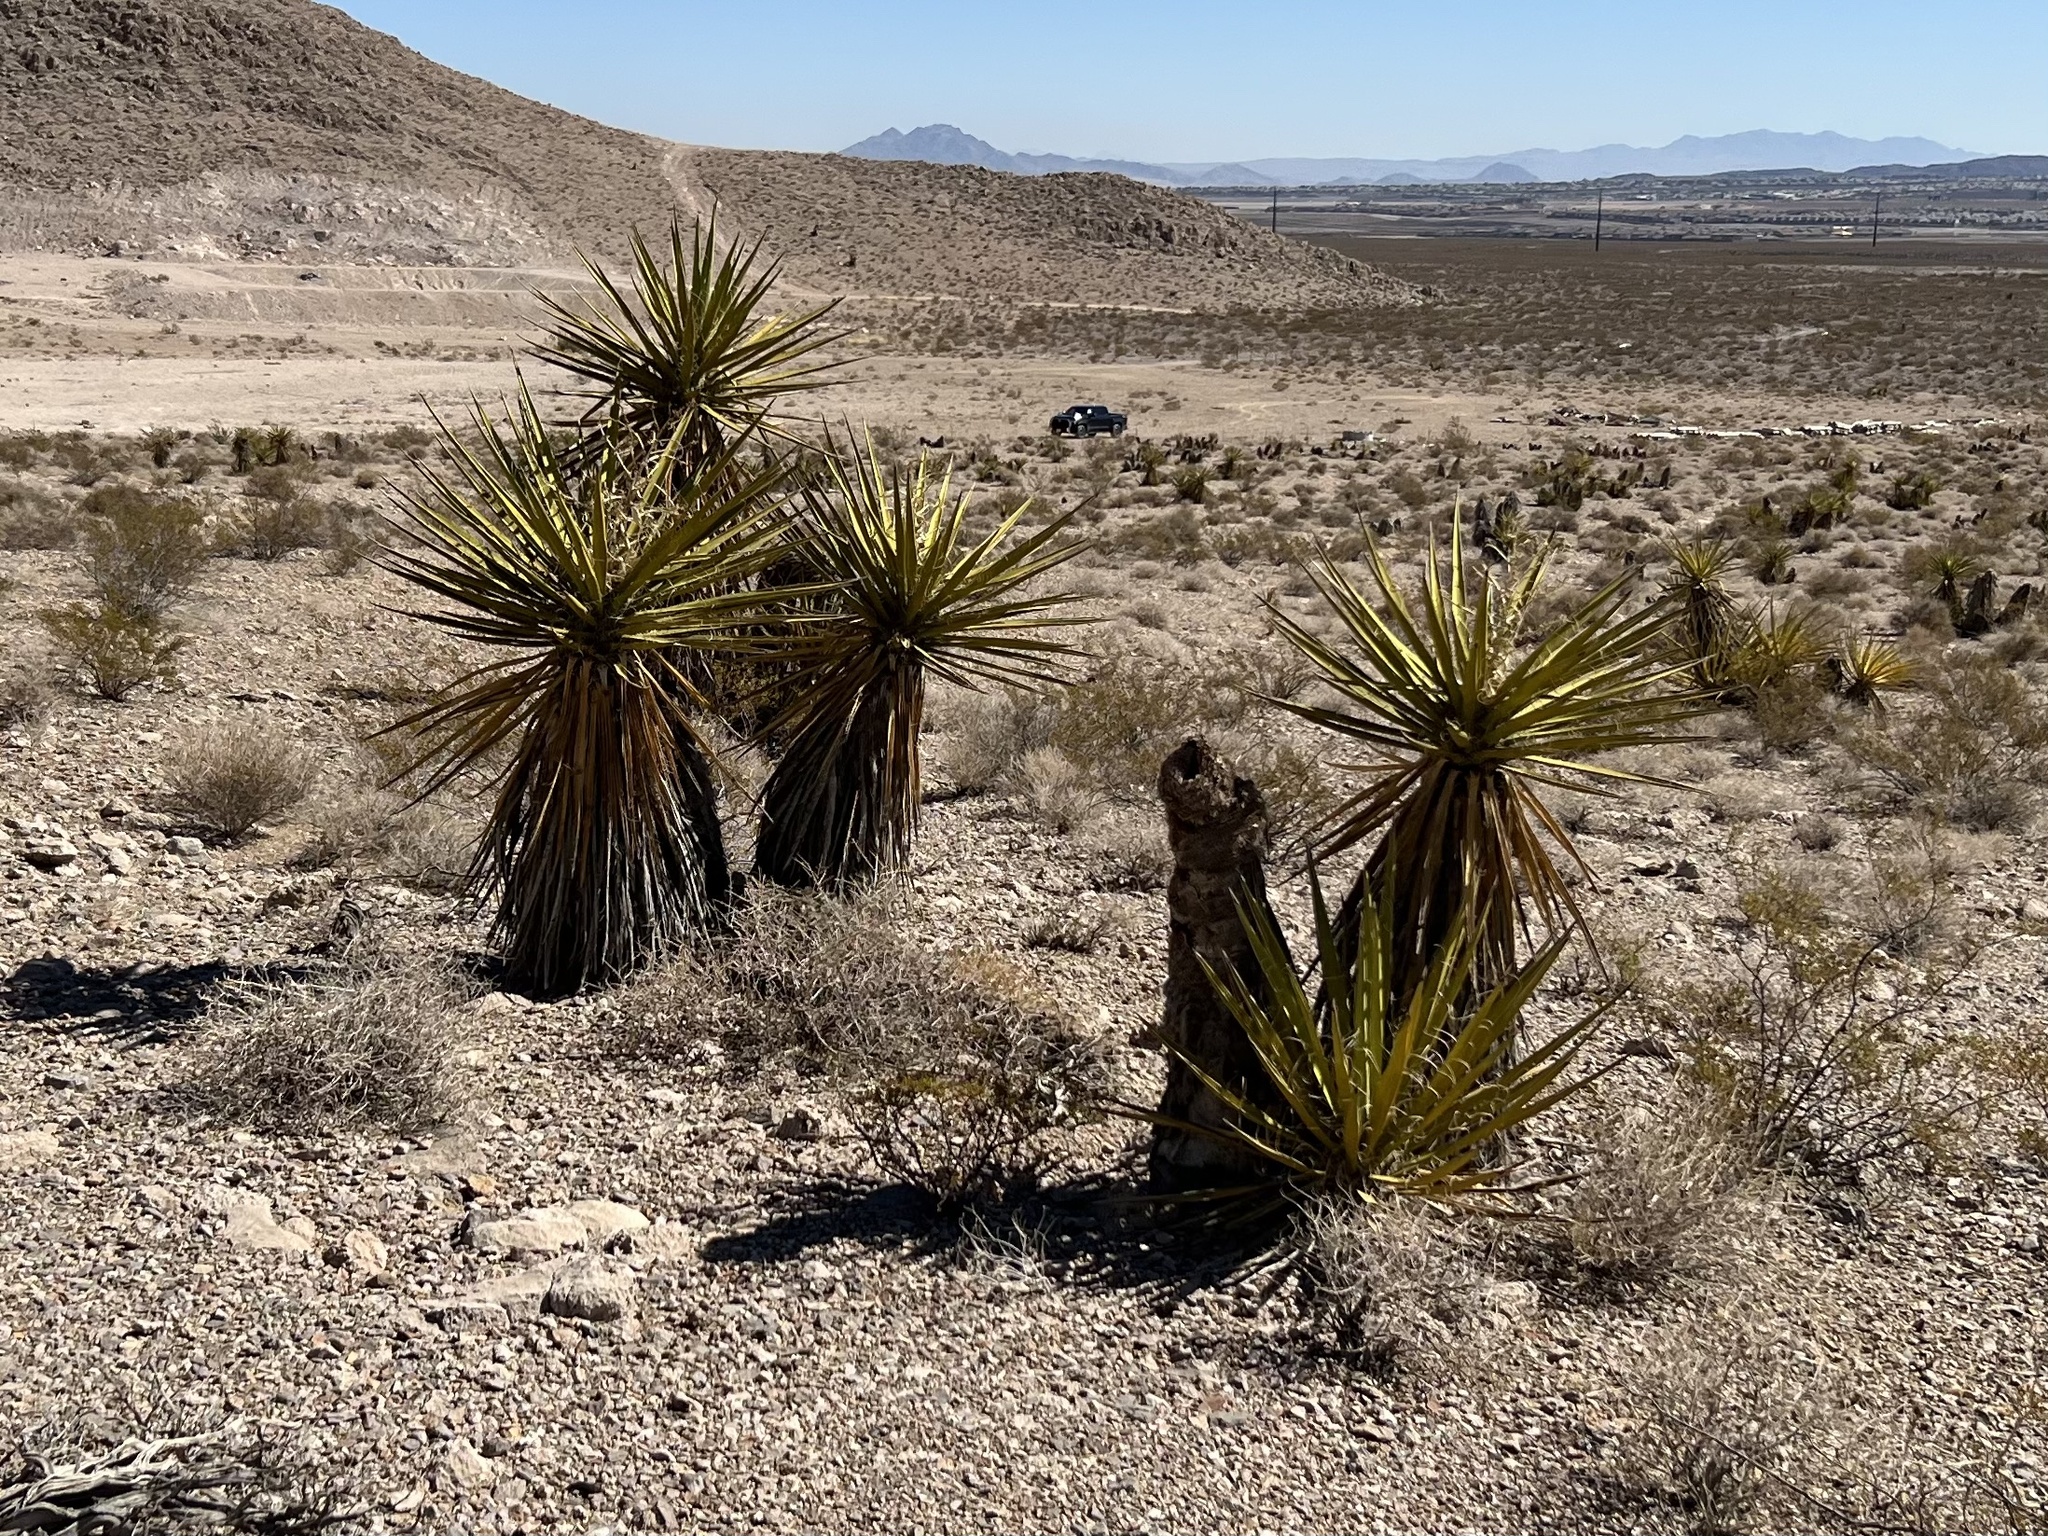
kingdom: Plantae
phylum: Tracheophyta
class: Liliopsida
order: Asparagales
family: Asparagaceae
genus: Yucca
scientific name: Yucca schidigera
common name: Mojave yucca
